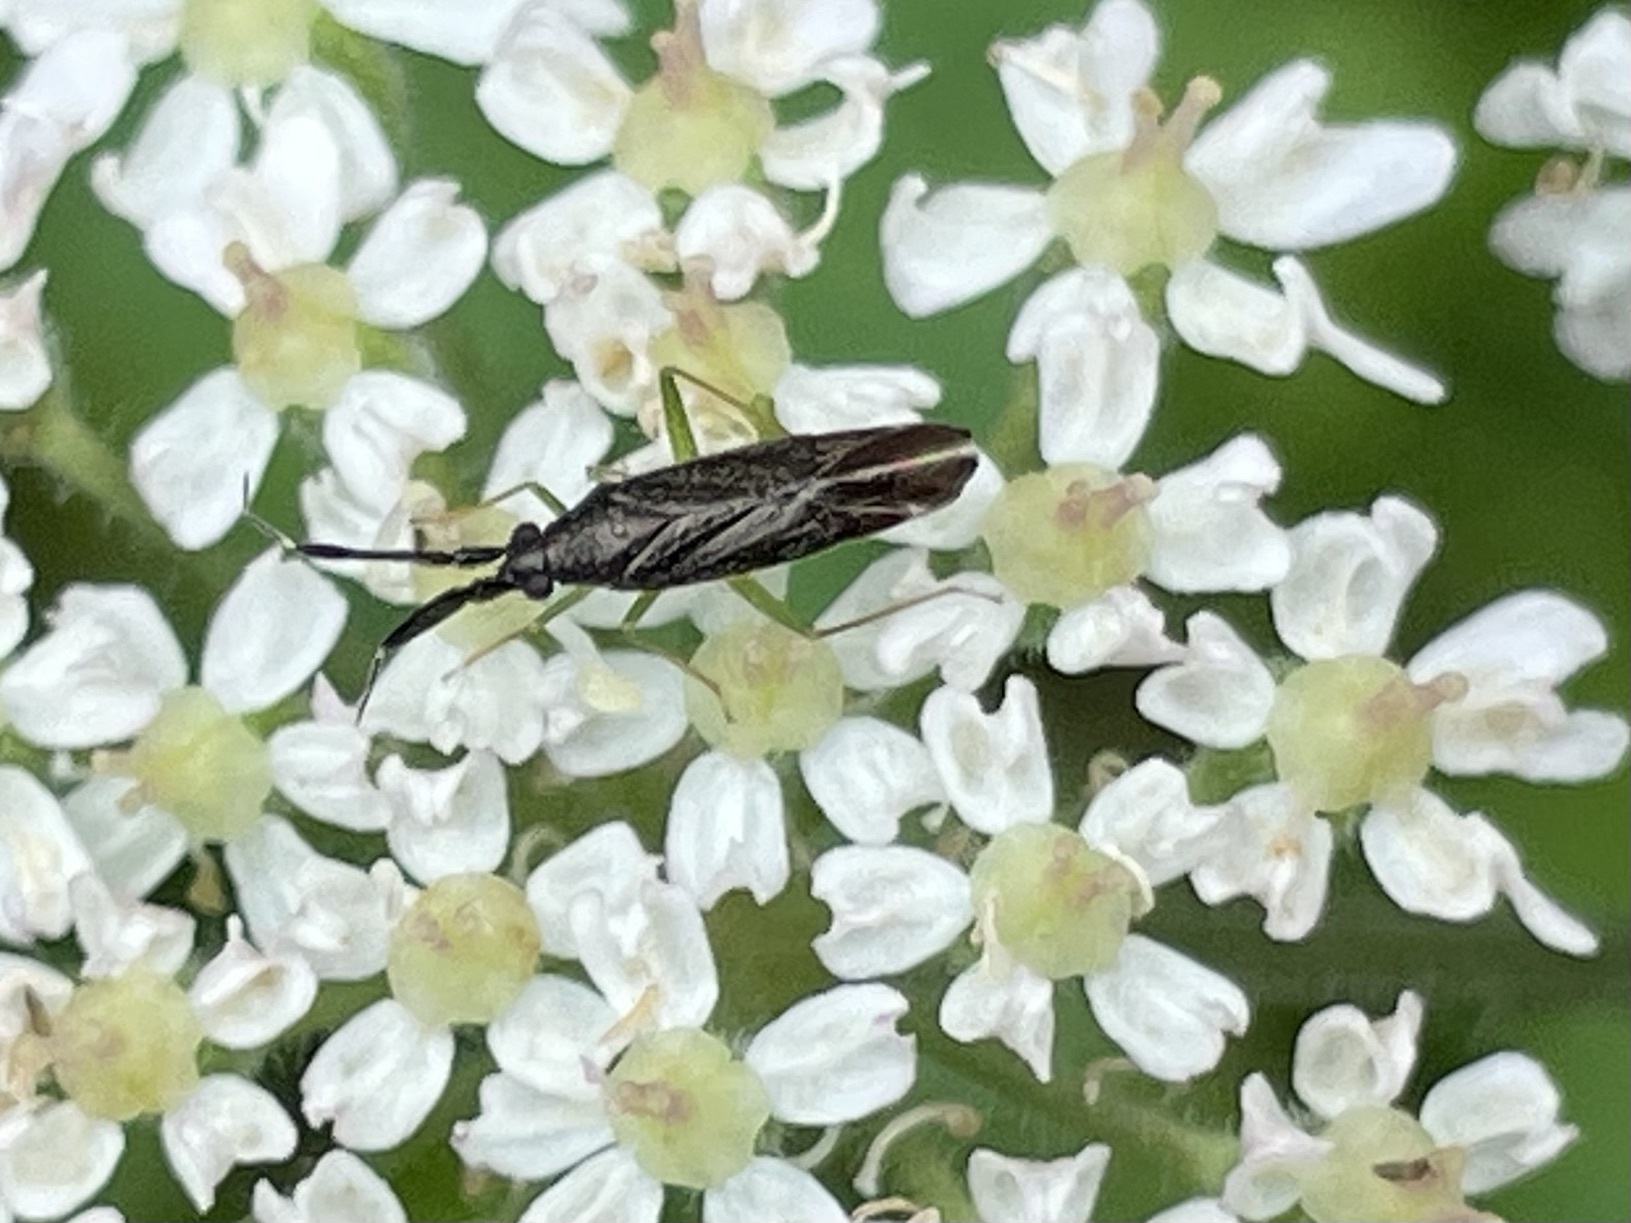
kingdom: Animalia
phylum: Arthropoda
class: Insecta
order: Hemiptera
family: Miridae
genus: Heterotoma
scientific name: Heterotoma planicornis
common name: Plant bug
